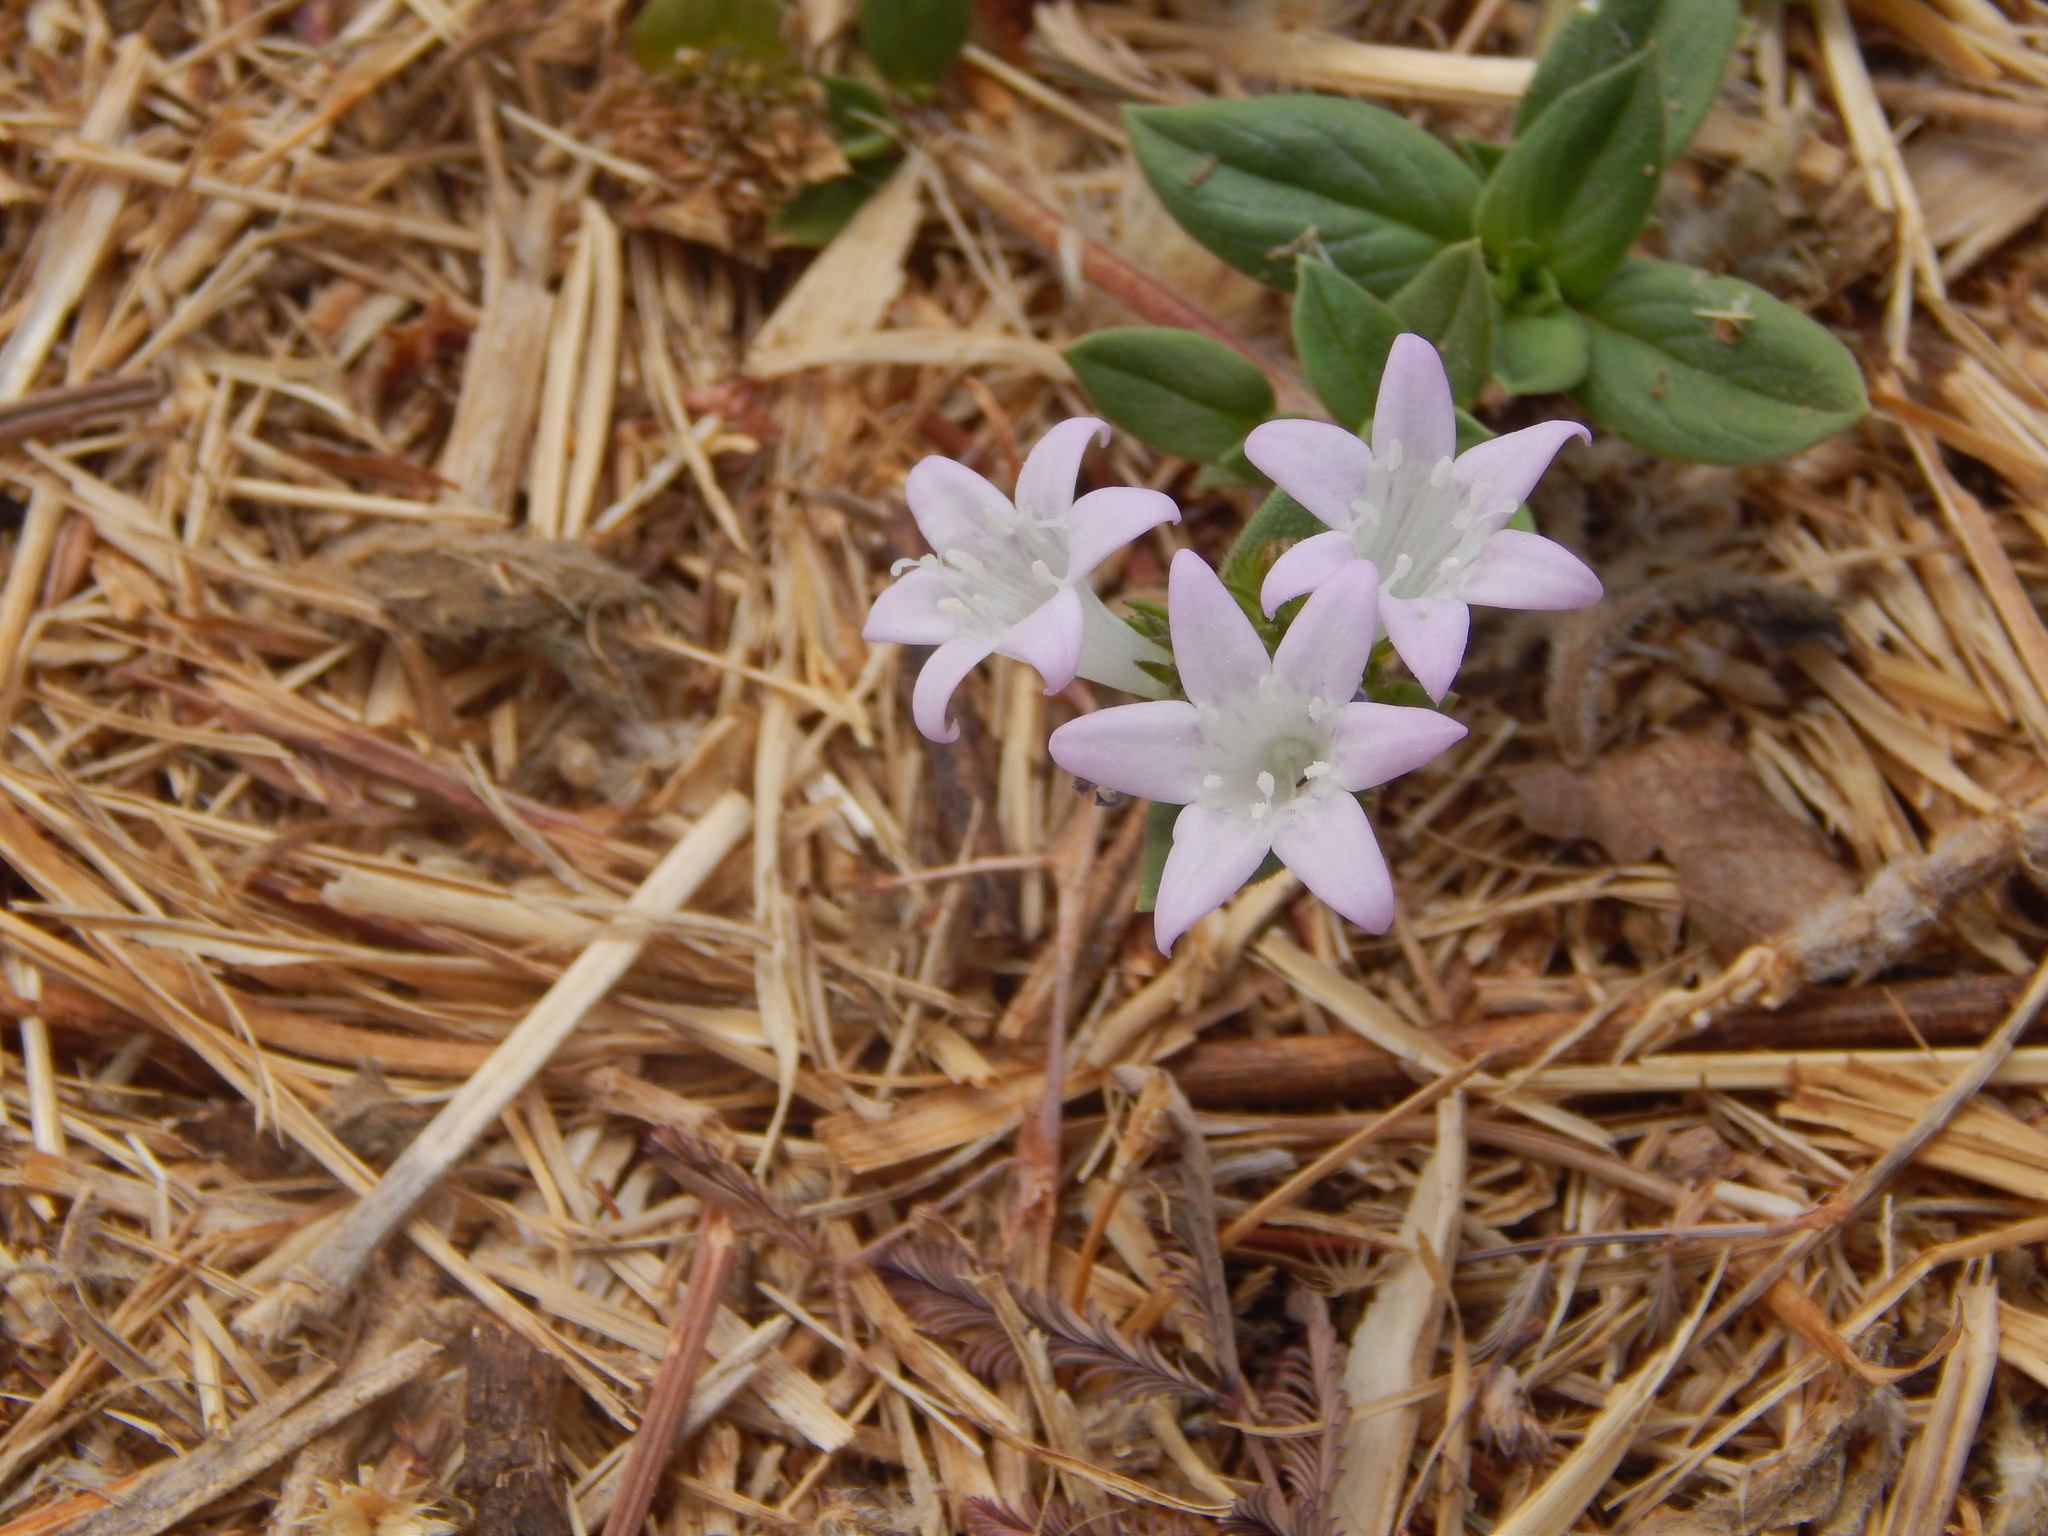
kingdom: Plantae
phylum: Tracheophyta
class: Magnoliopsida
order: Gentianales
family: Rubiaceae
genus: Richardia
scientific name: Richardia grandiflora
